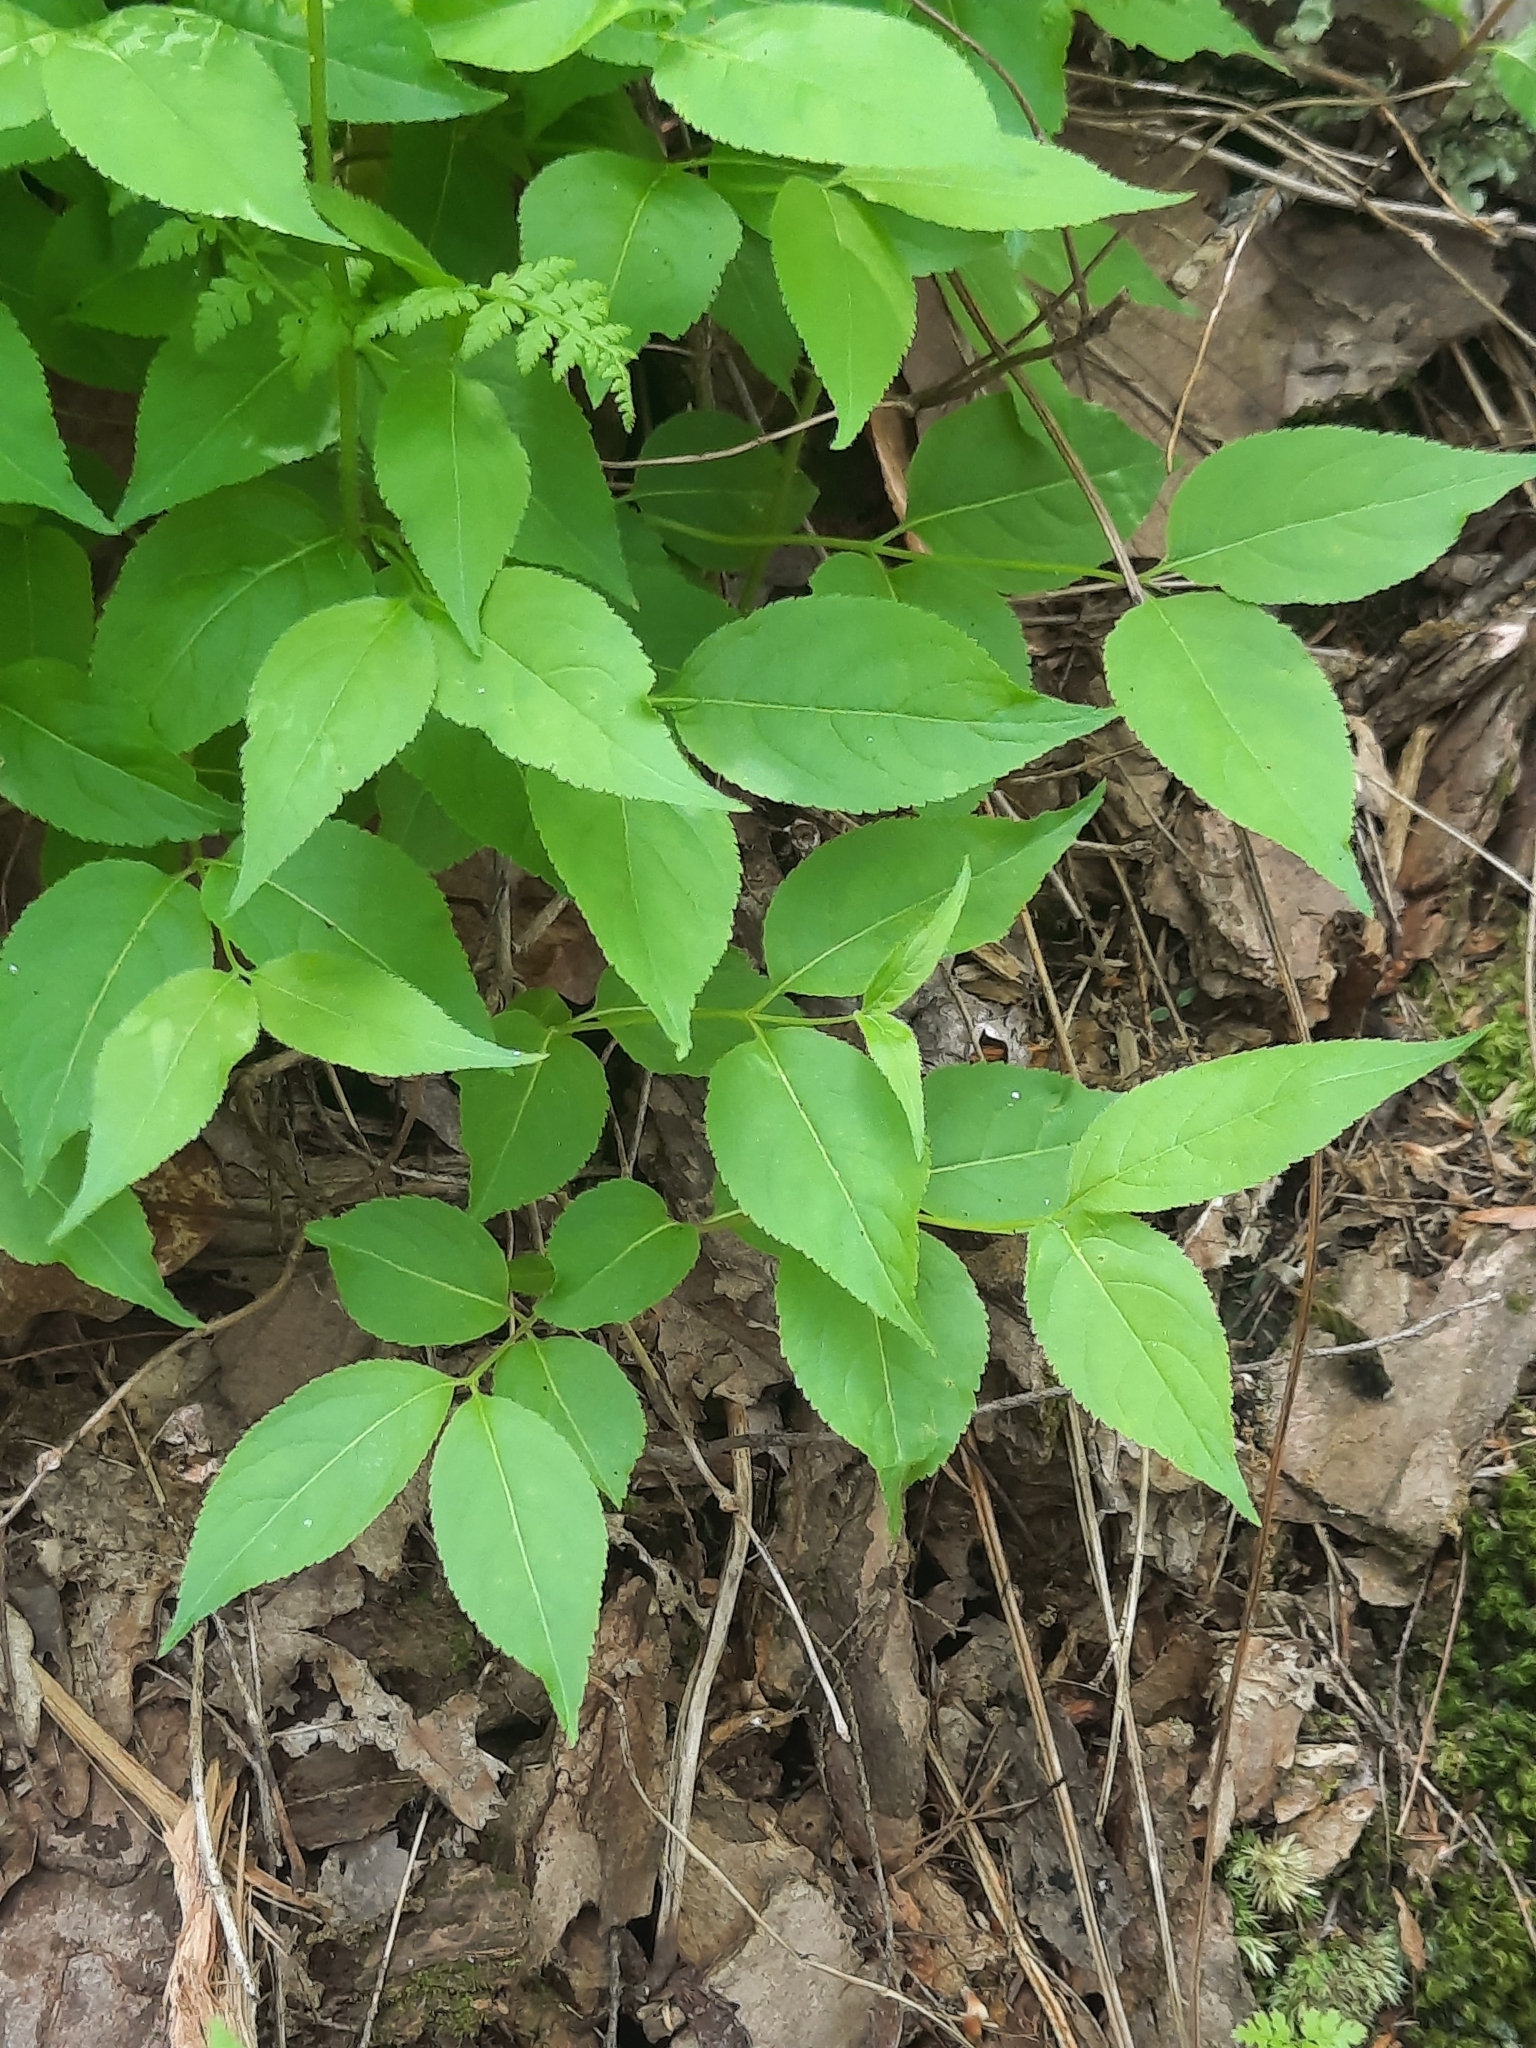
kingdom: Plantae
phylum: Tracheophyta
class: Magnoliopsida
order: Dipsacales
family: Caprifoliaceae
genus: Diervilla
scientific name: Diervilla lonicera
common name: Bush-honeysuckle
